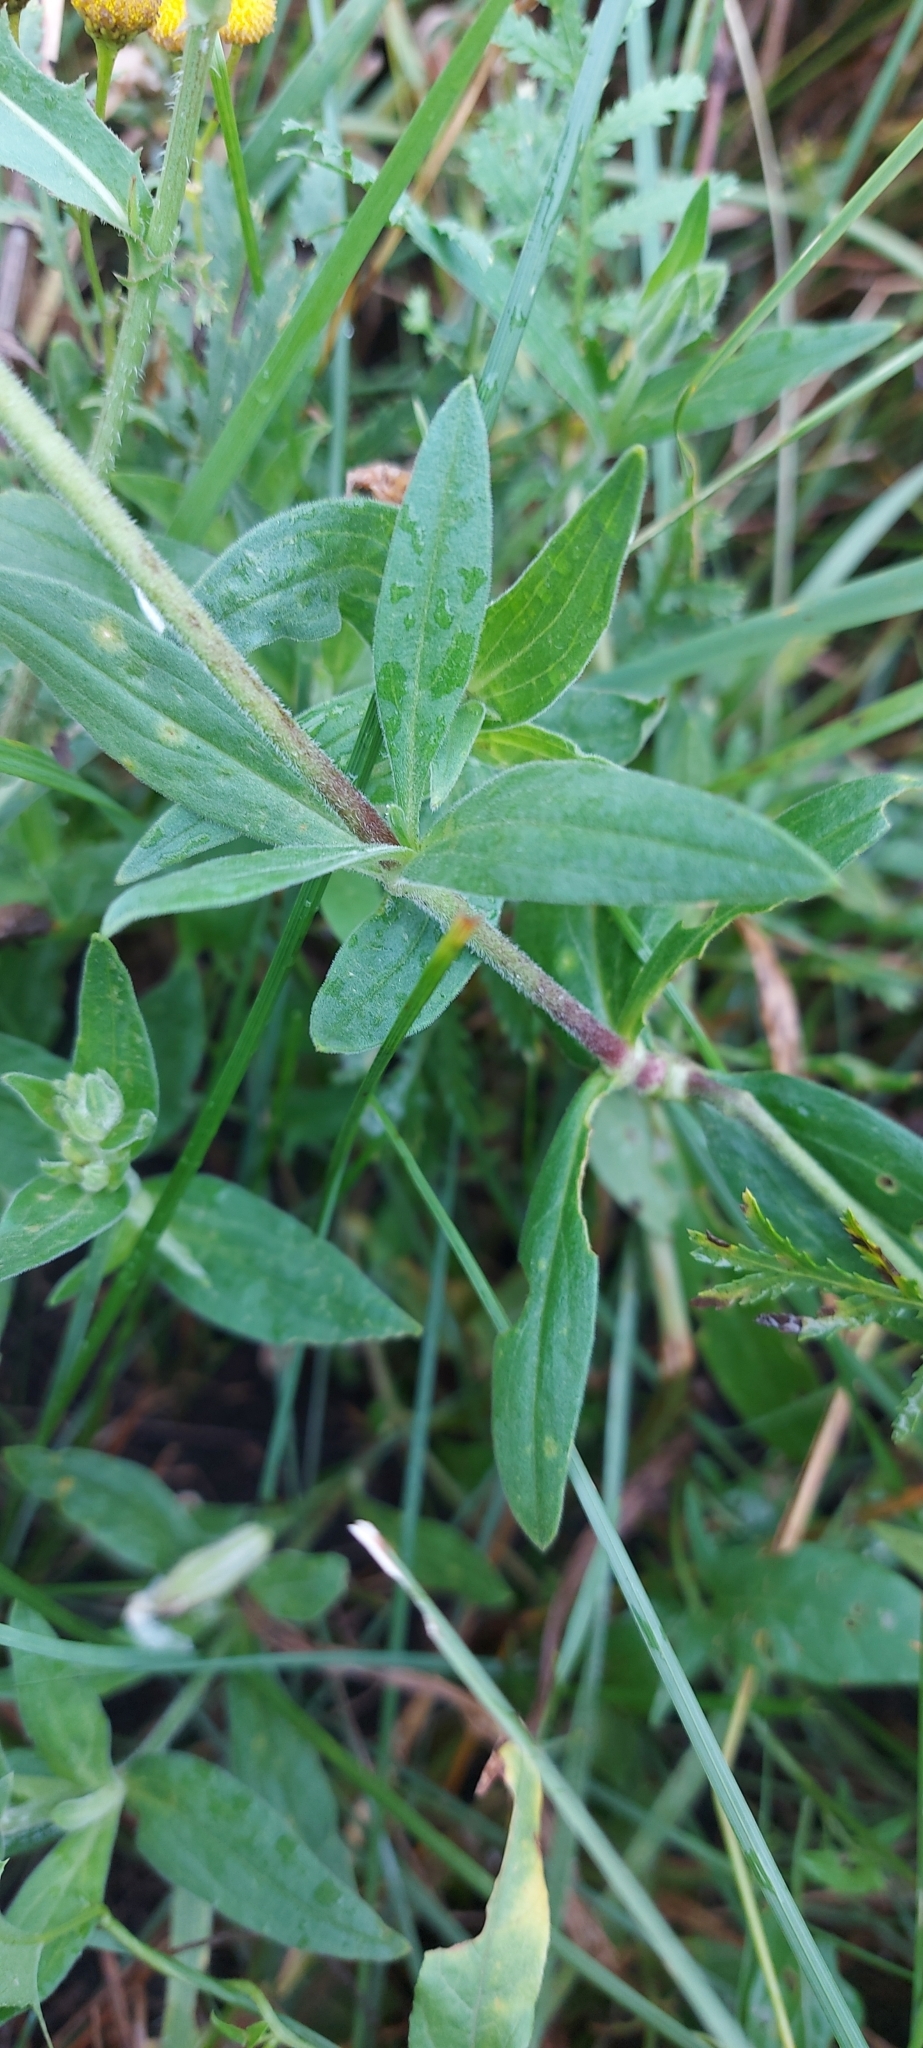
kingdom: Plantae
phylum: Tracheophyta
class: Magnoliopsida
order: Caryophyllales
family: Caryophyllaceae
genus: Silene
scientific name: Silene latifolia
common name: White campion
